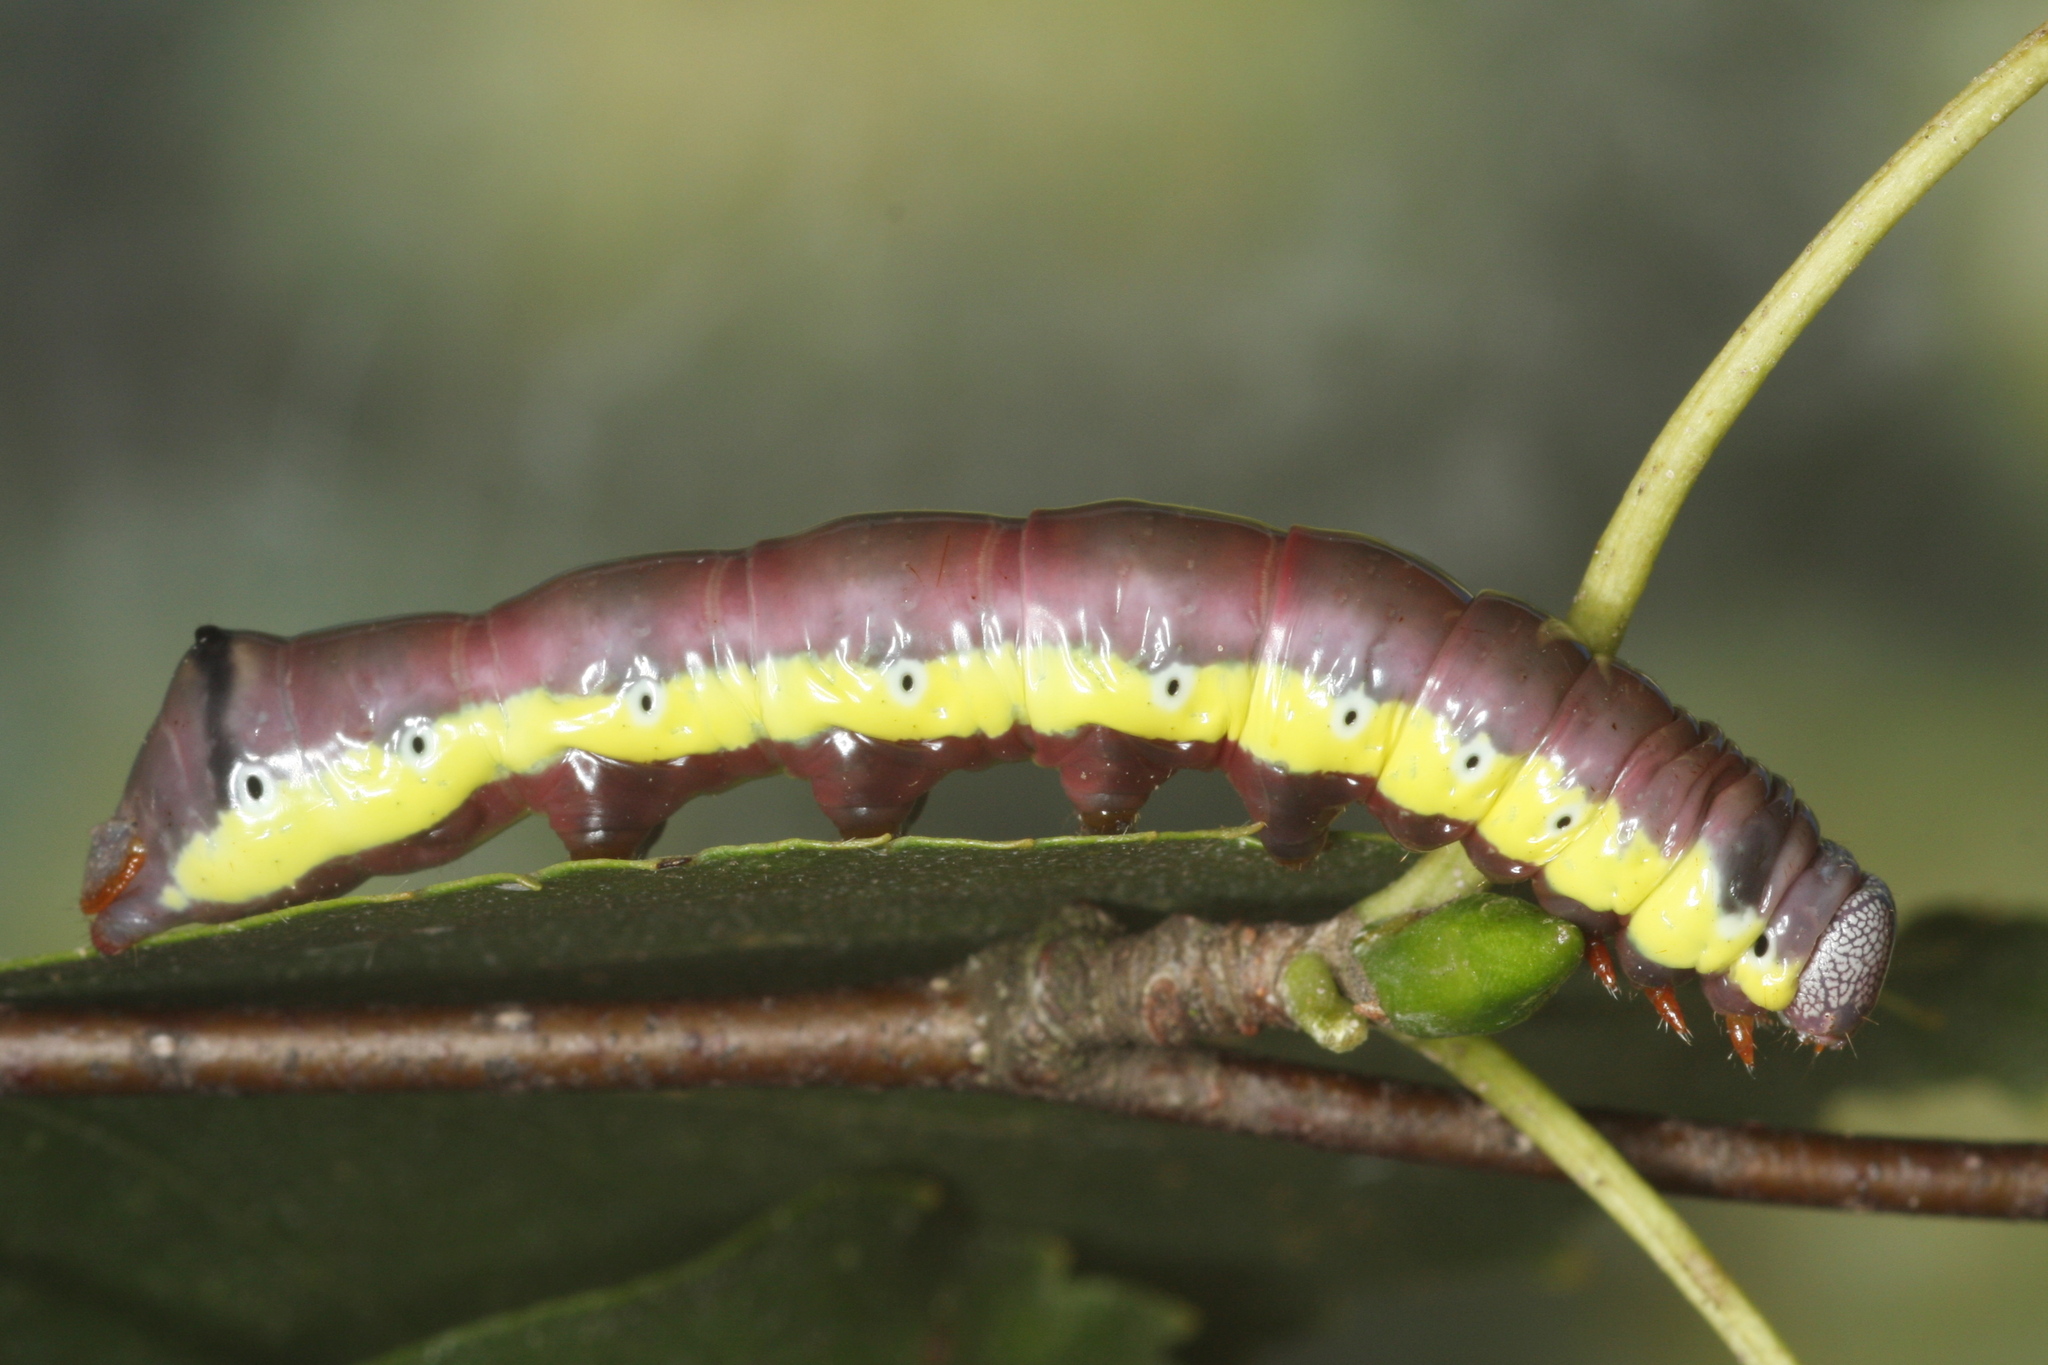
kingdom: Animalia
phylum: Arthropoda
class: Insecta
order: Lepidoptera
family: Notodontidae
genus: Pheosia
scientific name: Pheosia gnoma
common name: Lesser swallow prominent
